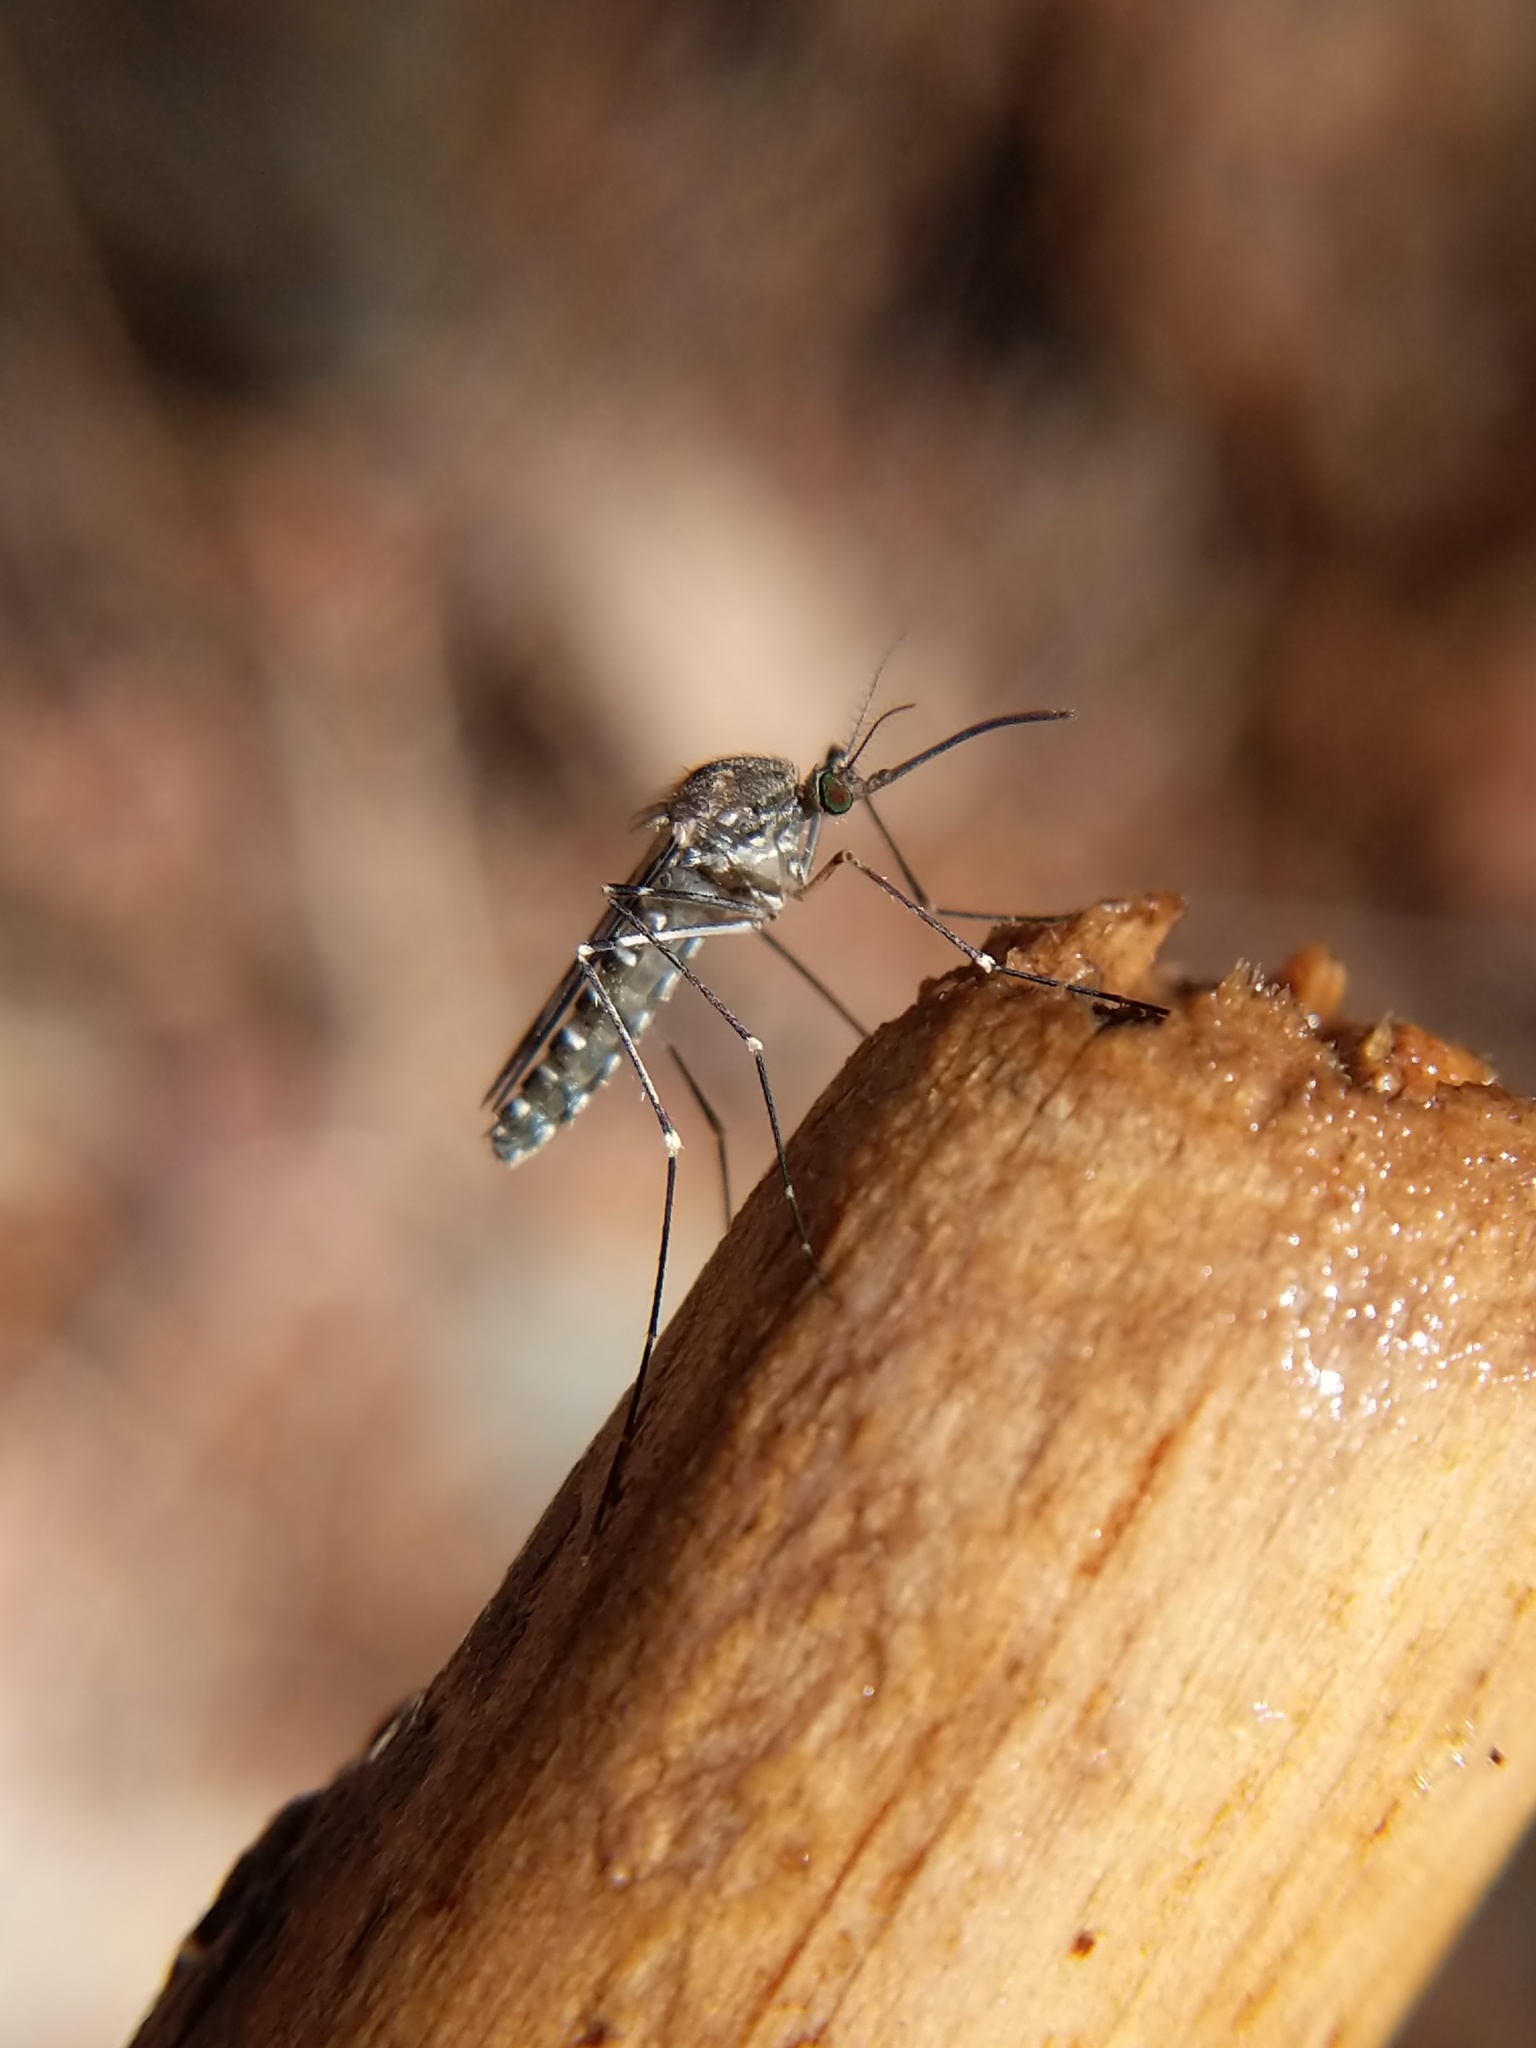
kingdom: Animalia
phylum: Arthropoda
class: Insecta
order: Diptera
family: Culicidae
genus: Culiseta
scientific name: Culiseta incidens
